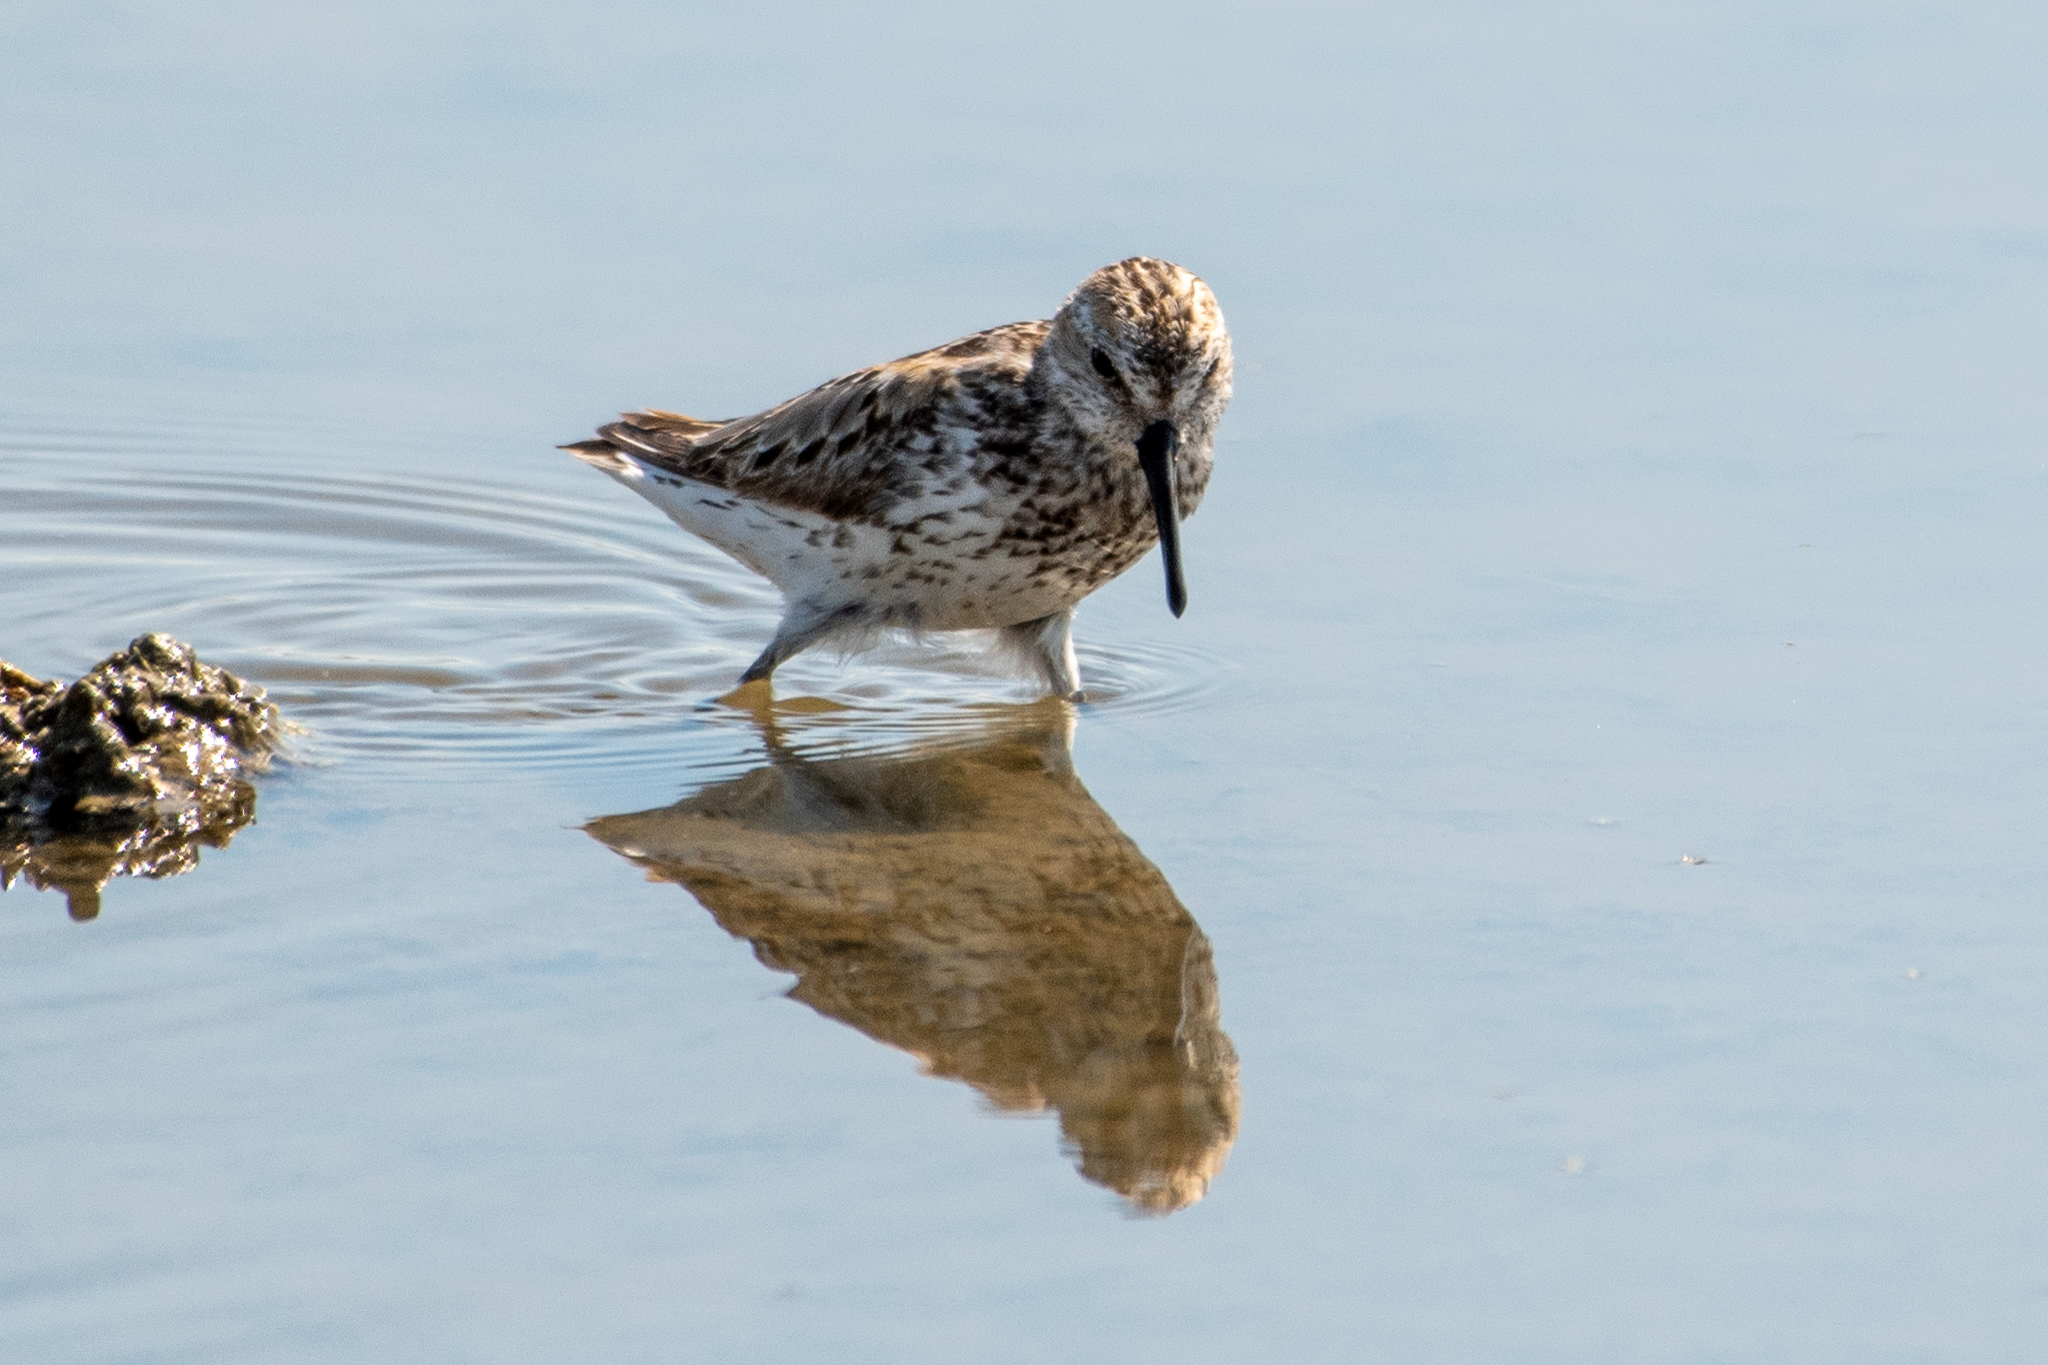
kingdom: Animalia
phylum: Chordata
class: Aves
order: Charadriiformes
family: Scolopacidae
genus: Calidris
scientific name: Calidris mauri
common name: Western sandpiper
